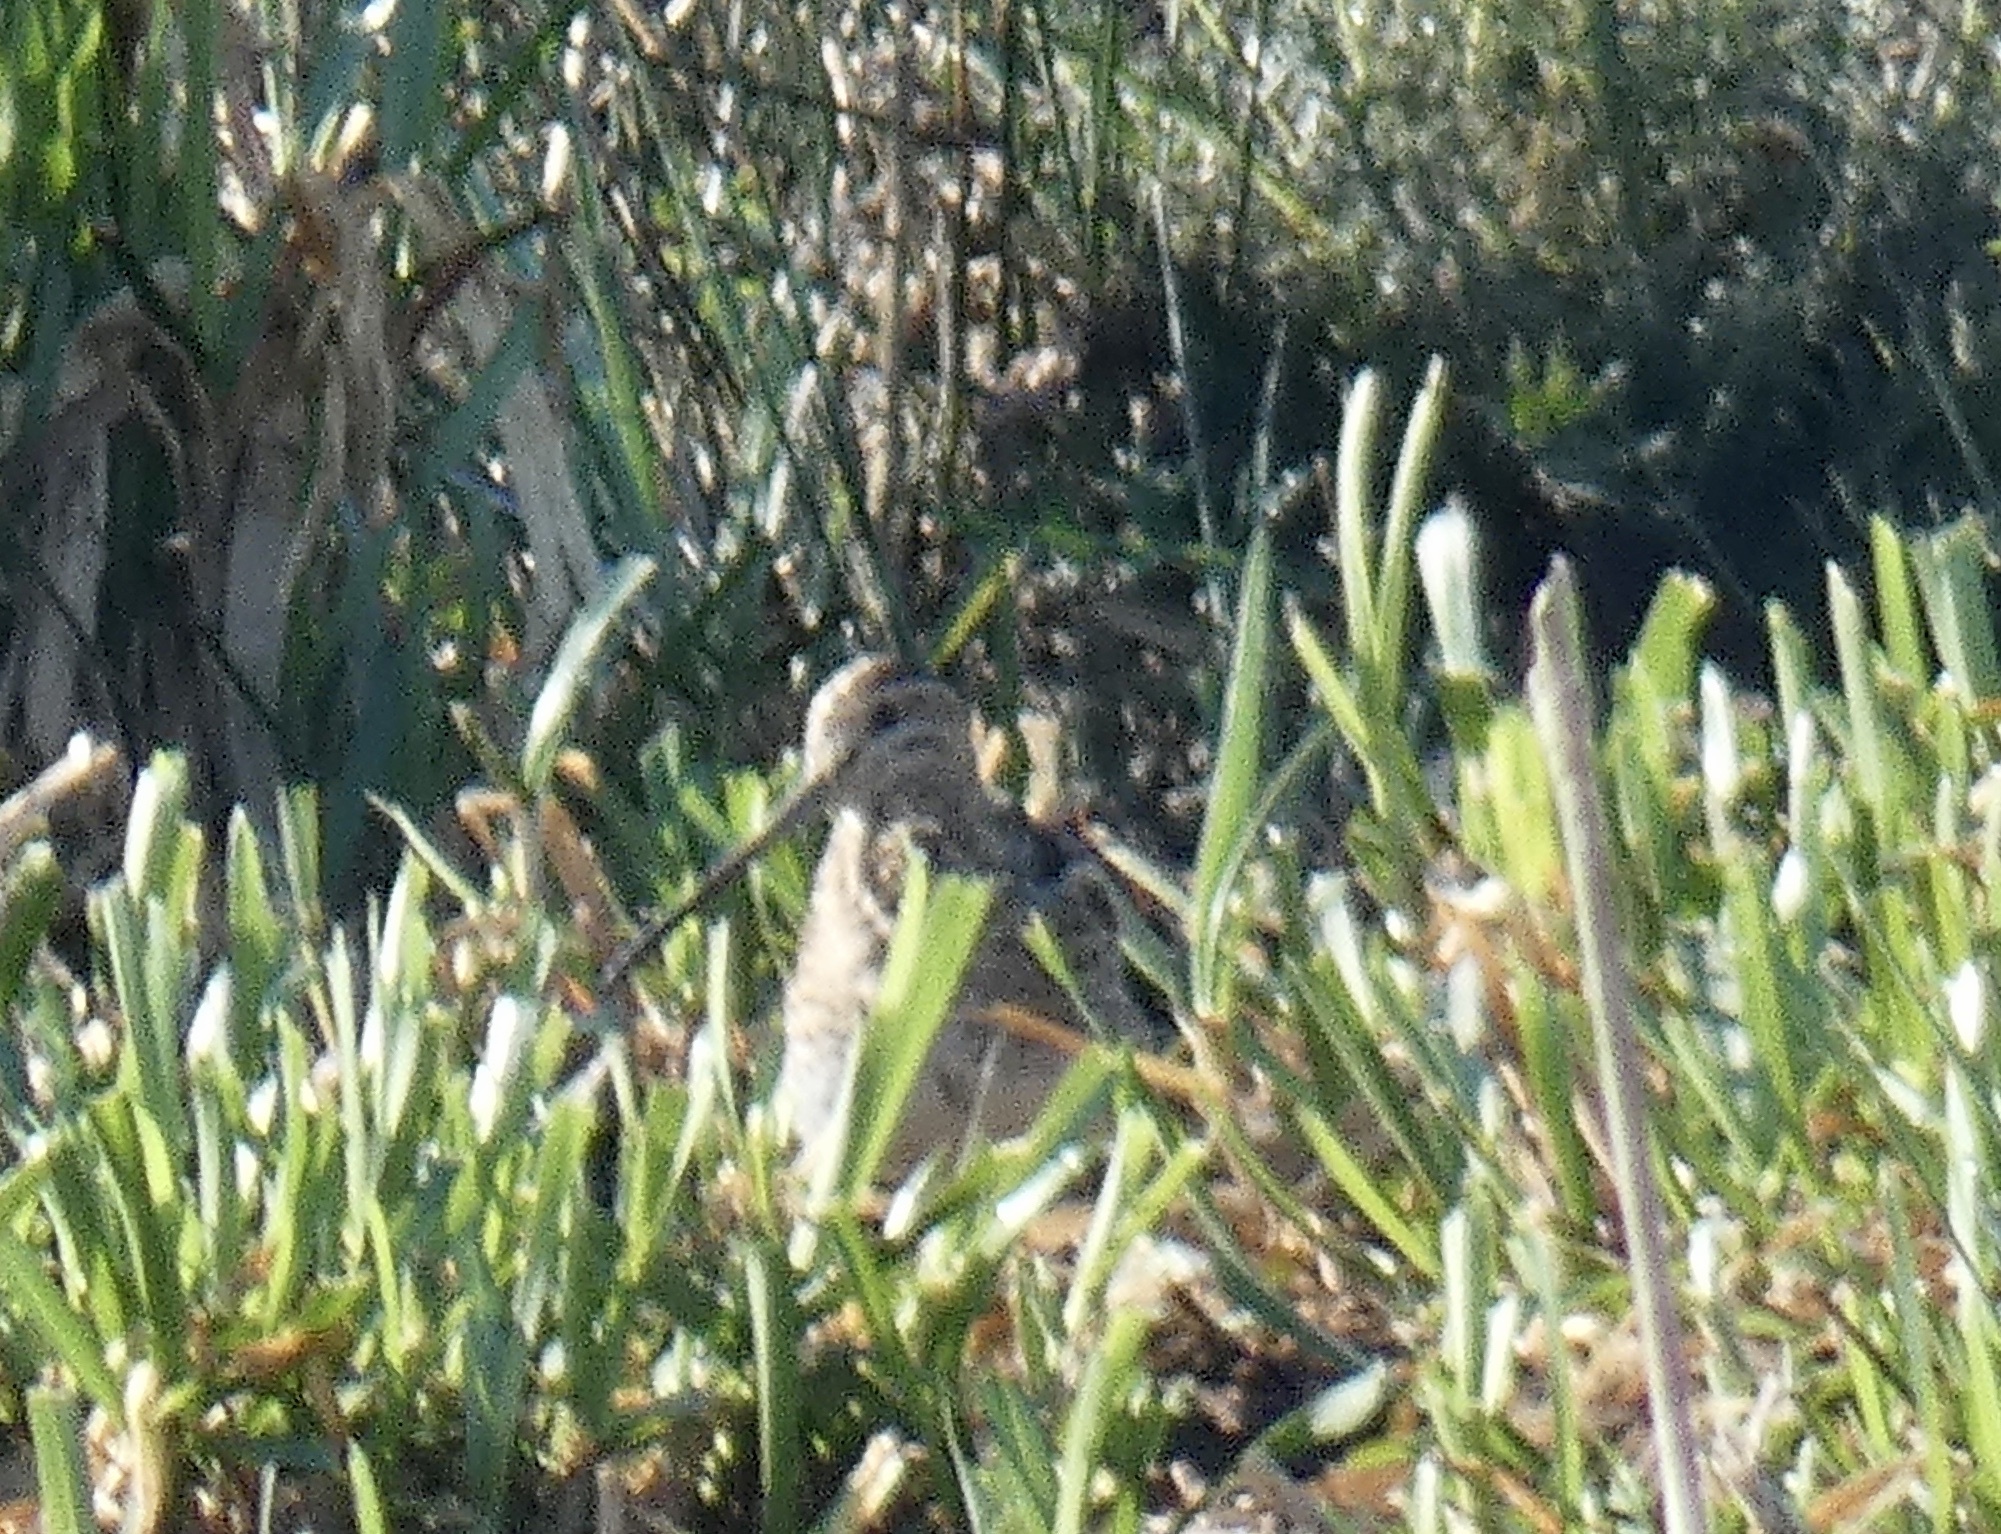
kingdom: Animalia
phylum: Chordata
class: Aves
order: Charadriiformes
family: Scolopacidae
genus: Gallinago
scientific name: Gallinago gallinago
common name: Common snipe
